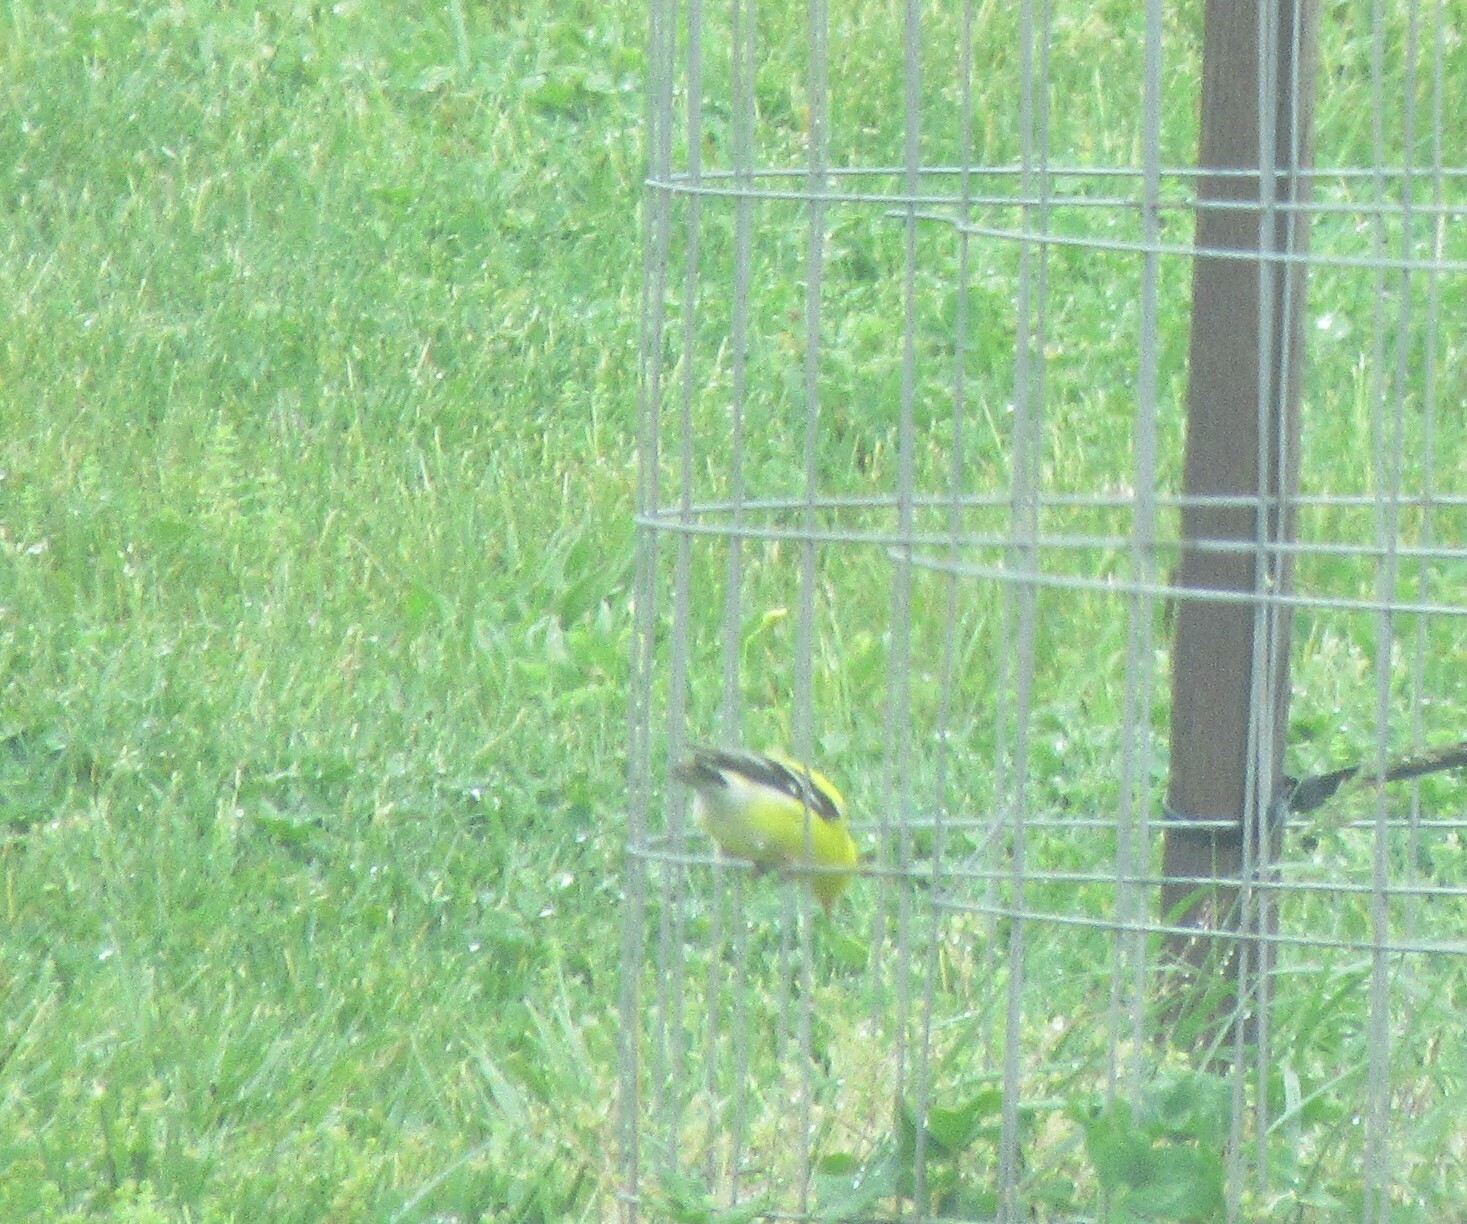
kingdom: Animalia
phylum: Chordata
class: Aves
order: Passeriformes
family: Fringillidae
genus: Spinus
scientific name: Spinus tristis
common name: American goldfinch
